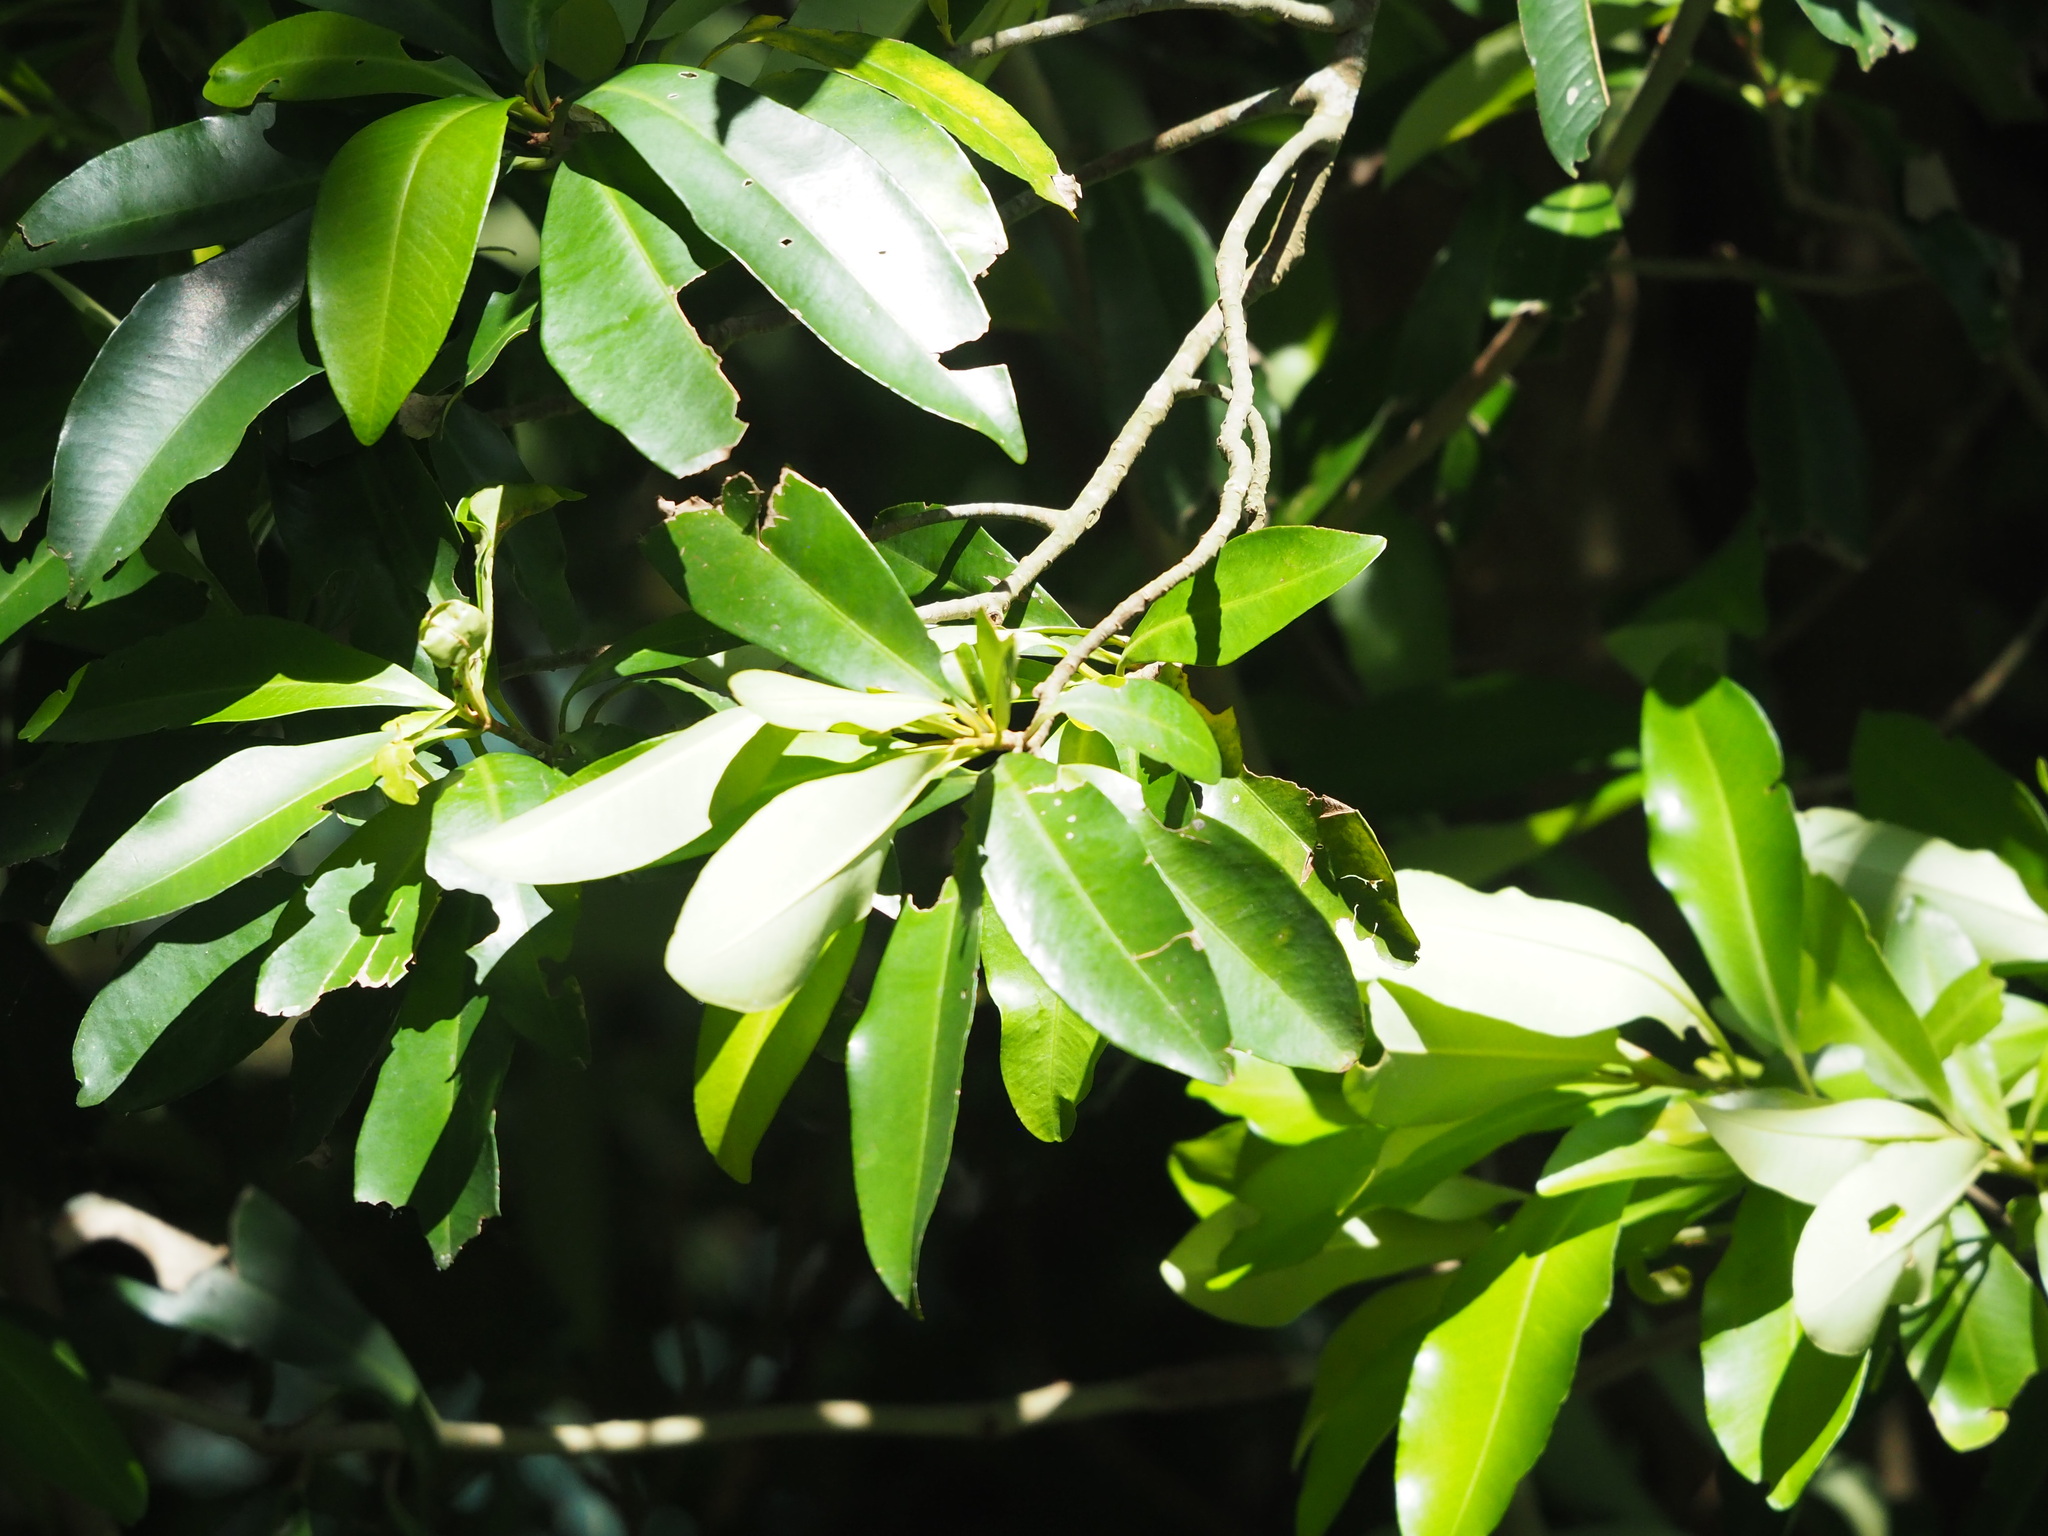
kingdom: Plantae
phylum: Tracheophyta
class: Magnoliopsida
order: Ericales
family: Primulaceae
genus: Ardisia
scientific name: Ardisia sieboldii
